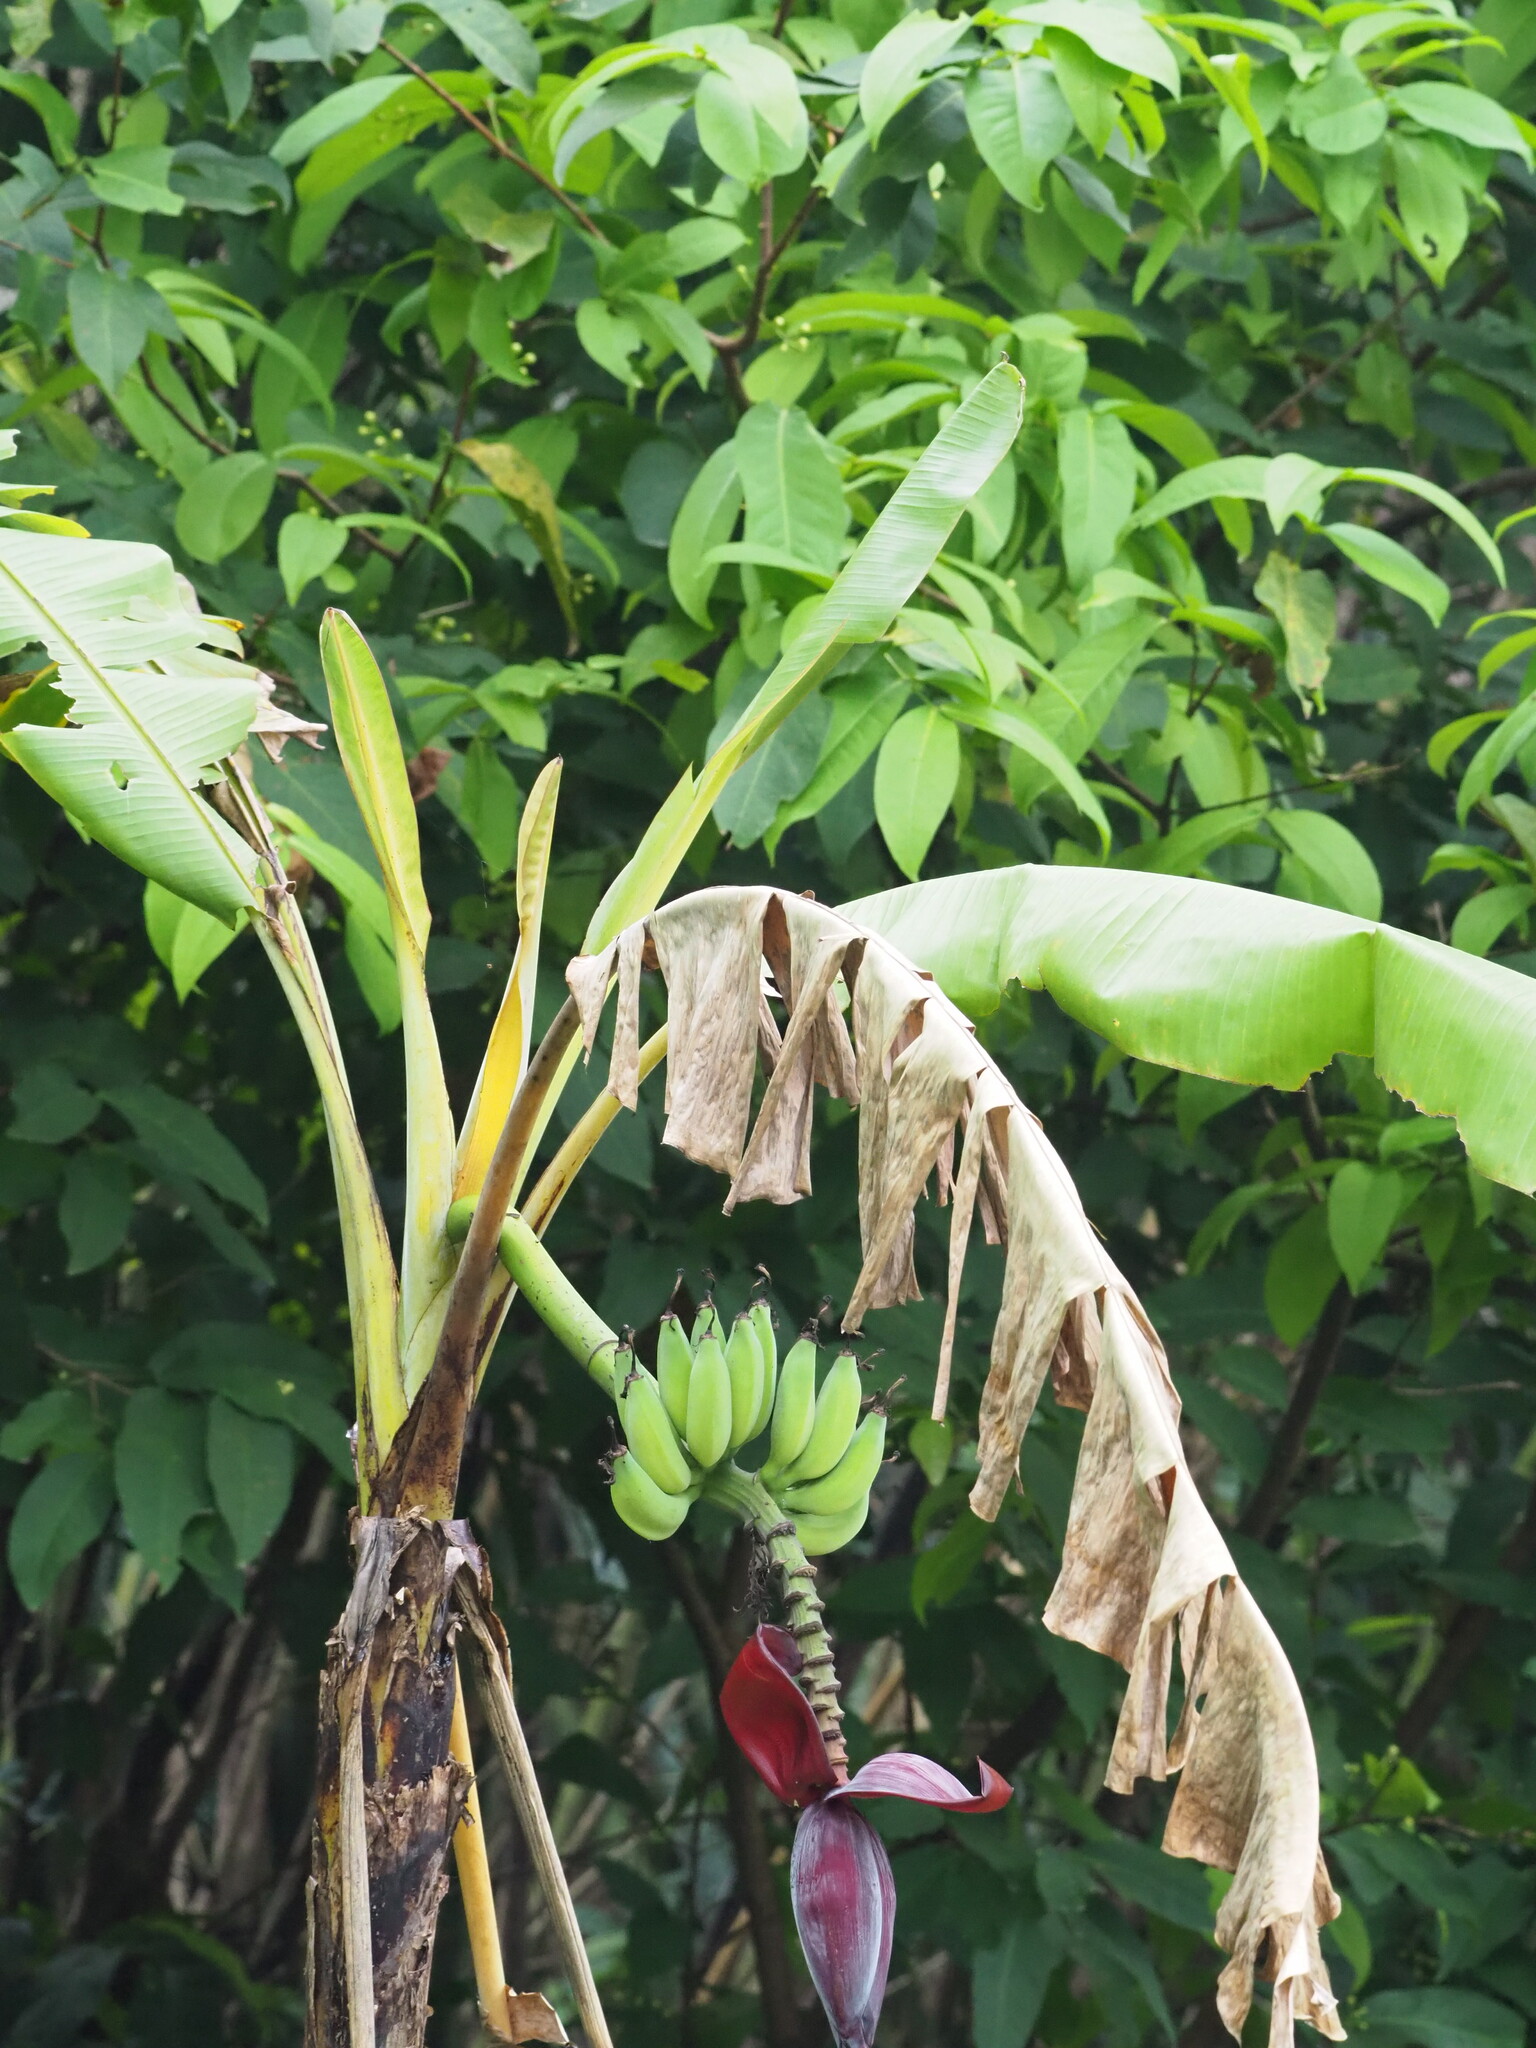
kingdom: Plantae
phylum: Tracheophyta
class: Liliopsida
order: Zingiberales
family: Musaceae
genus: Musa
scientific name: Musa paradisiaca
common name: French plantain
